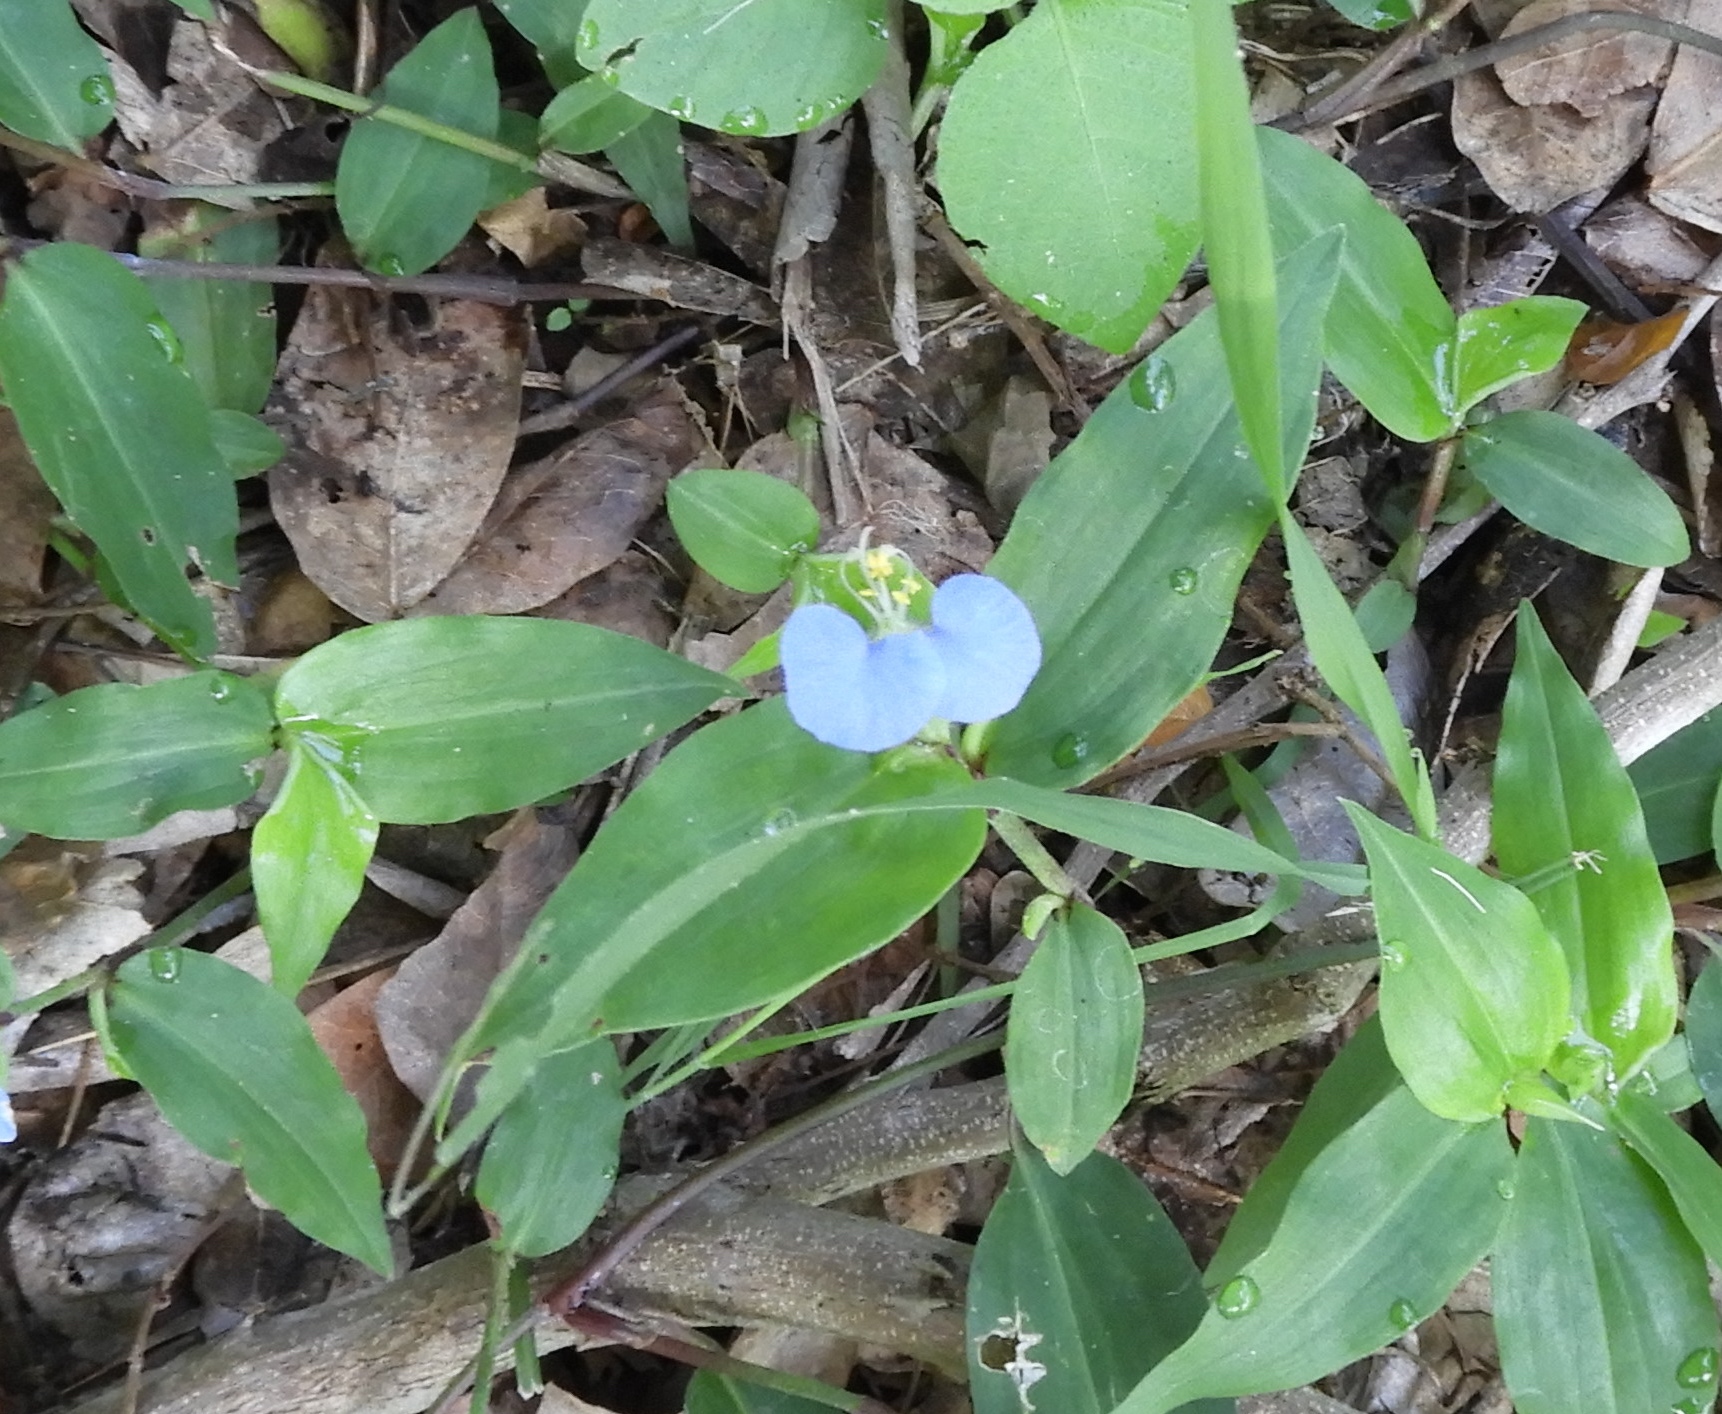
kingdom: Plantae
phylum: Tracheophyta
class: Liliopsida
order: Commelinales
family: Commelinaceae
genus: Commelina
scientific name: Commelina erecta
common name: Blousel blommetjie
